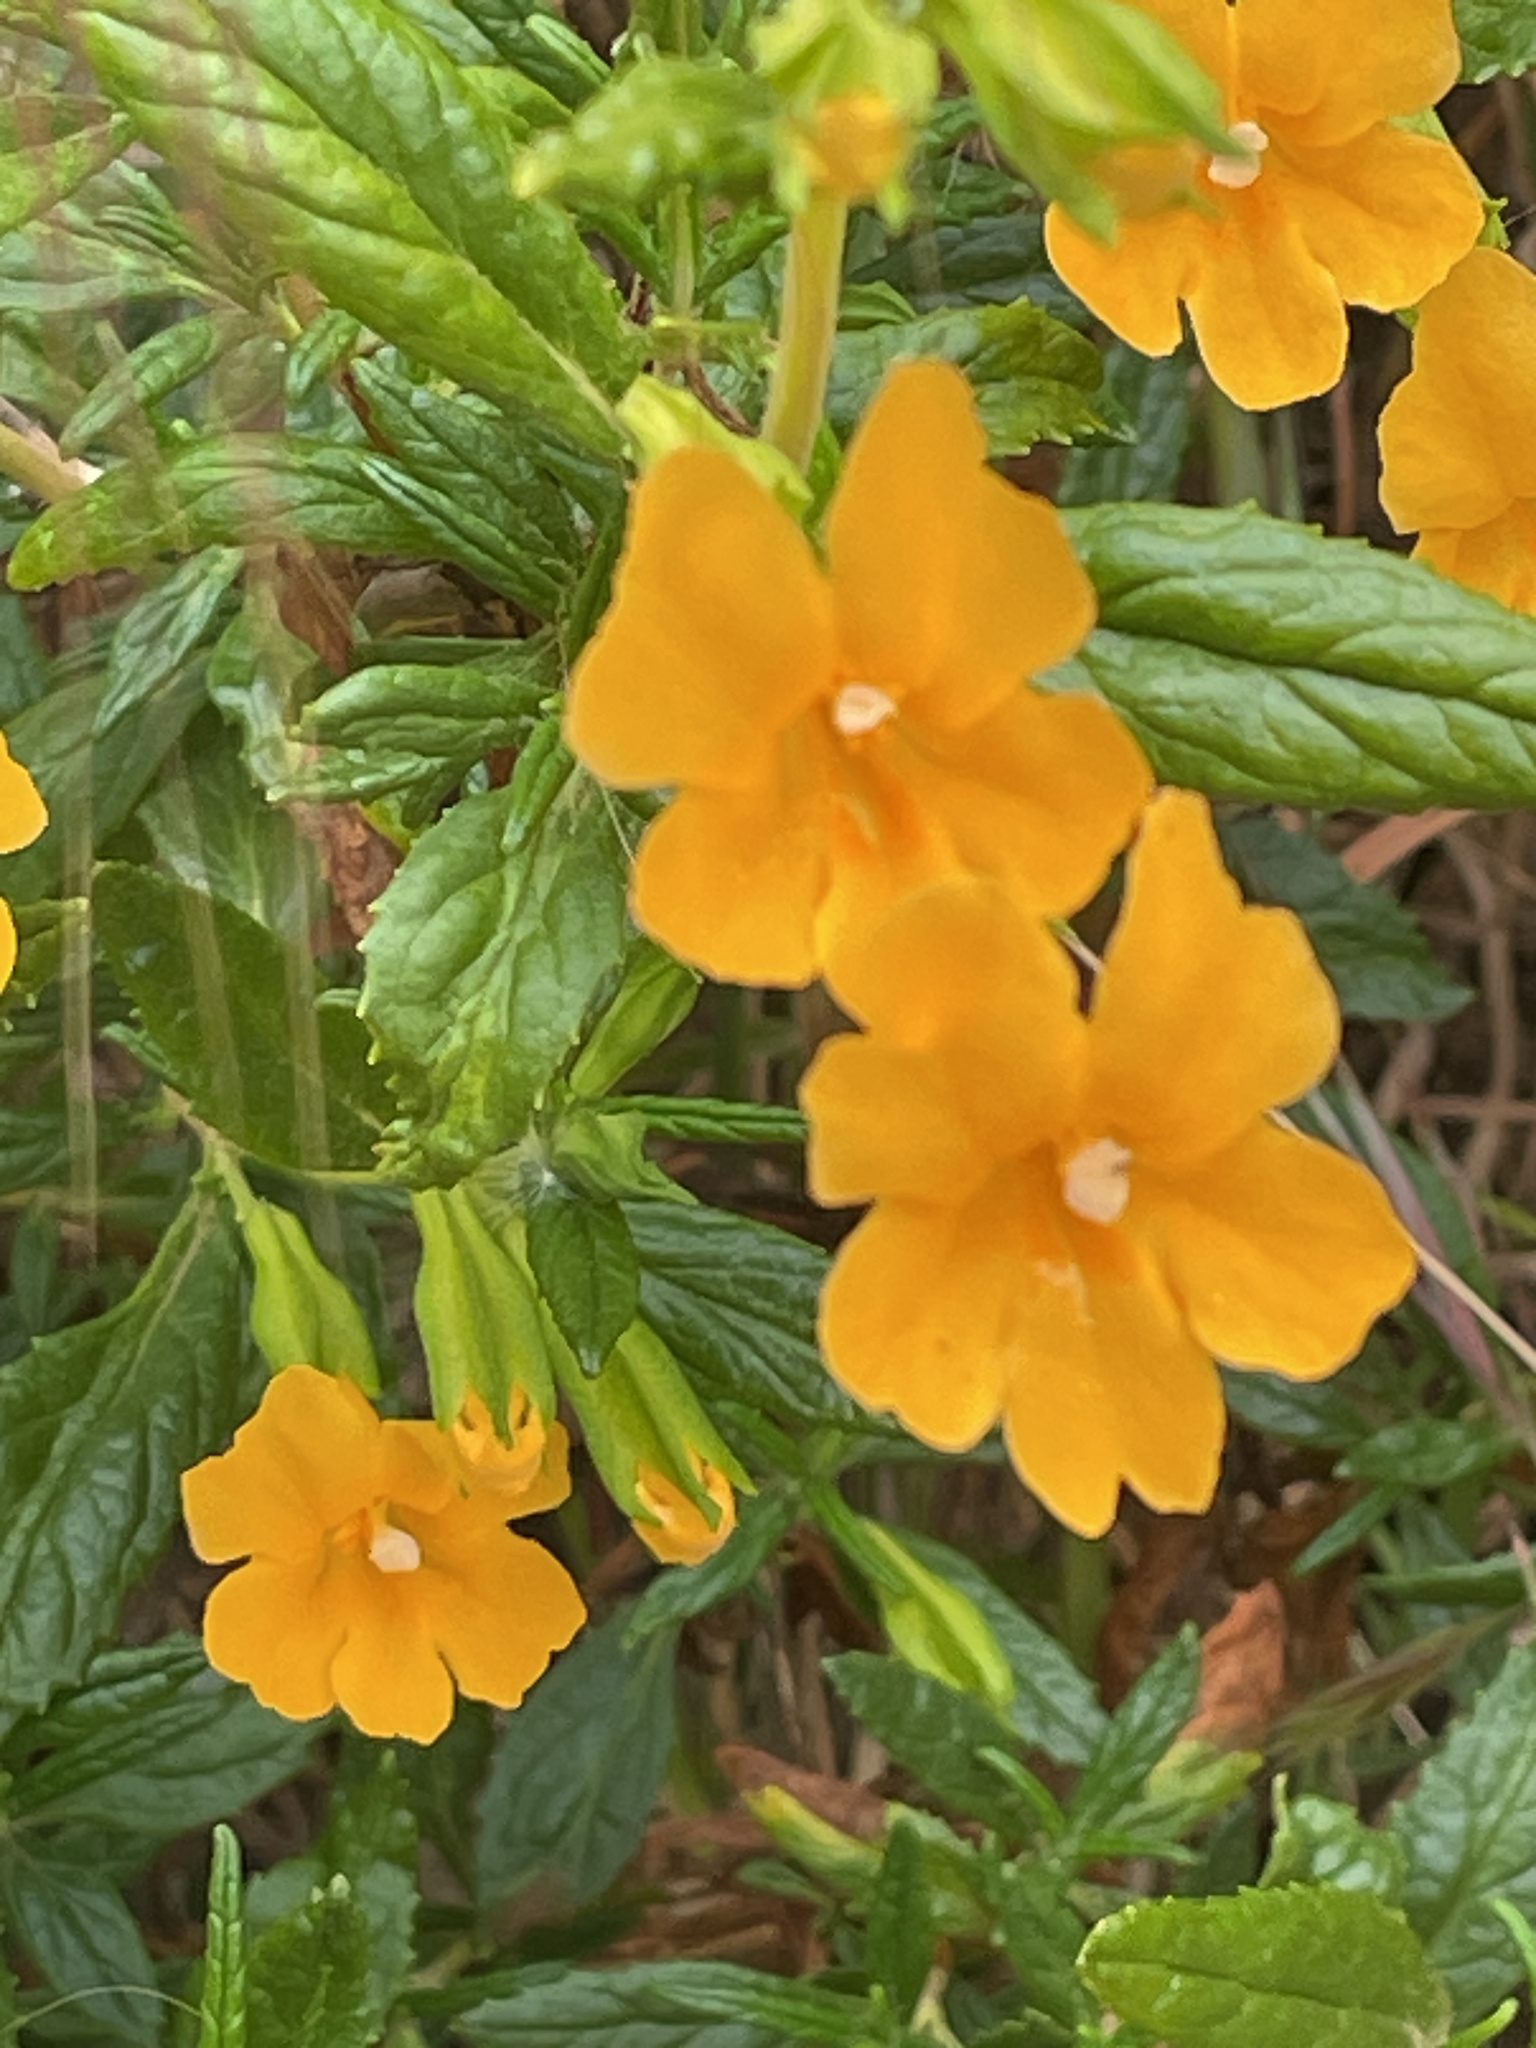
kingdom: Plantae
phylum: Tracheophyta
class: Magnoliopsida
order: Lamiales
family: Phrymaceae
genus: Diplacus
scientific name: Diplacus aurantiacus
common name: Bush monkey-flower
